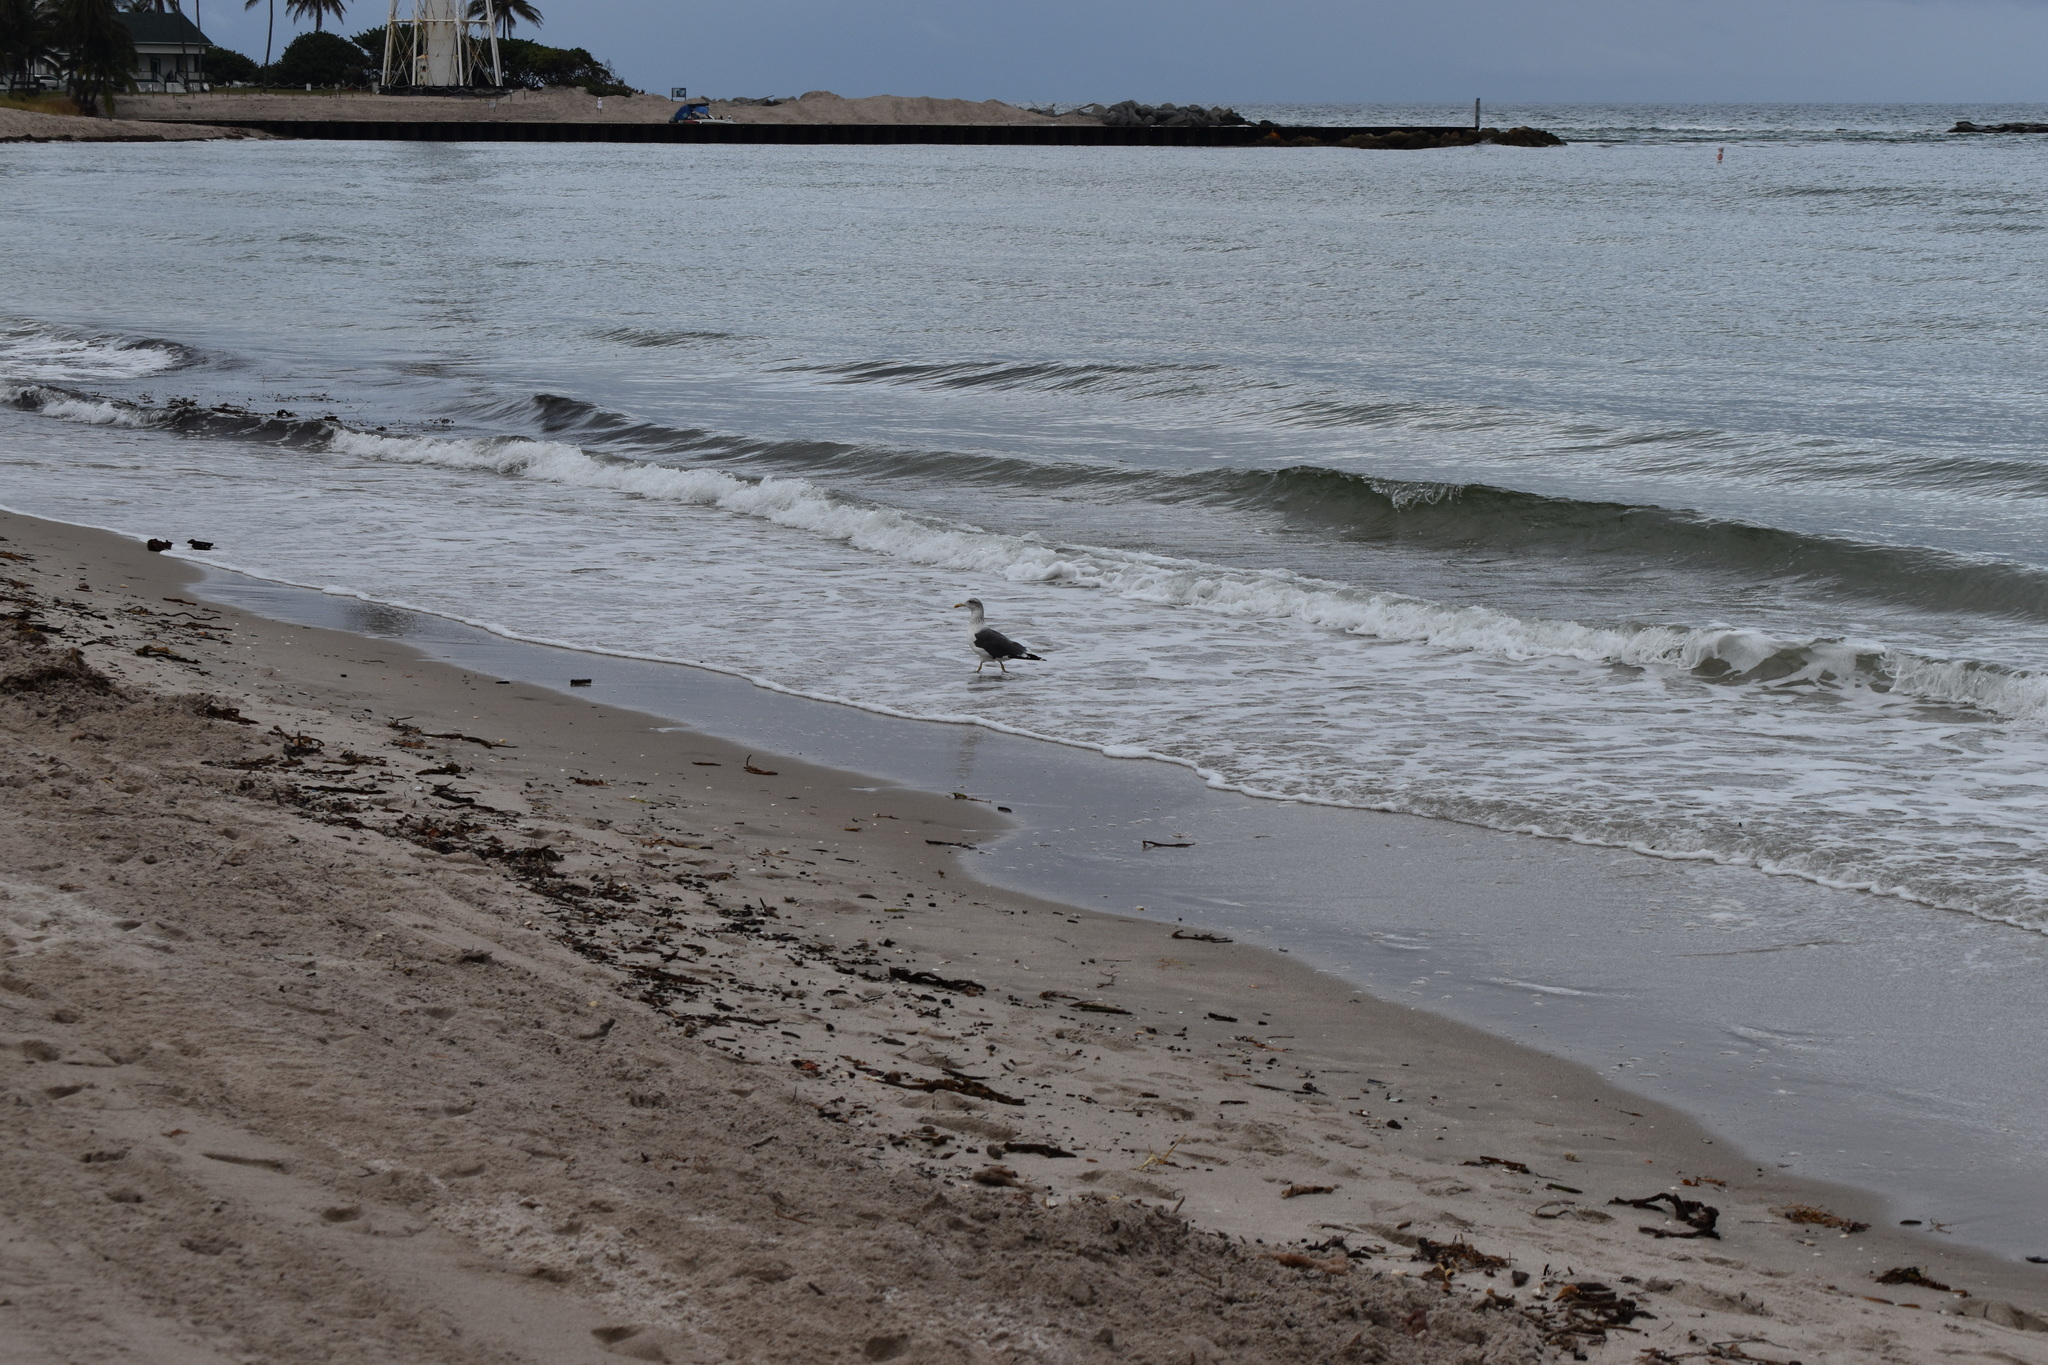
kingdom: Animalia
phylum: Chordata
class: Aves
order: Charadriiformes
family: Laridae
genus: Larus
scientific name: Larus fuscus
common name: Lesser black-backed gull
